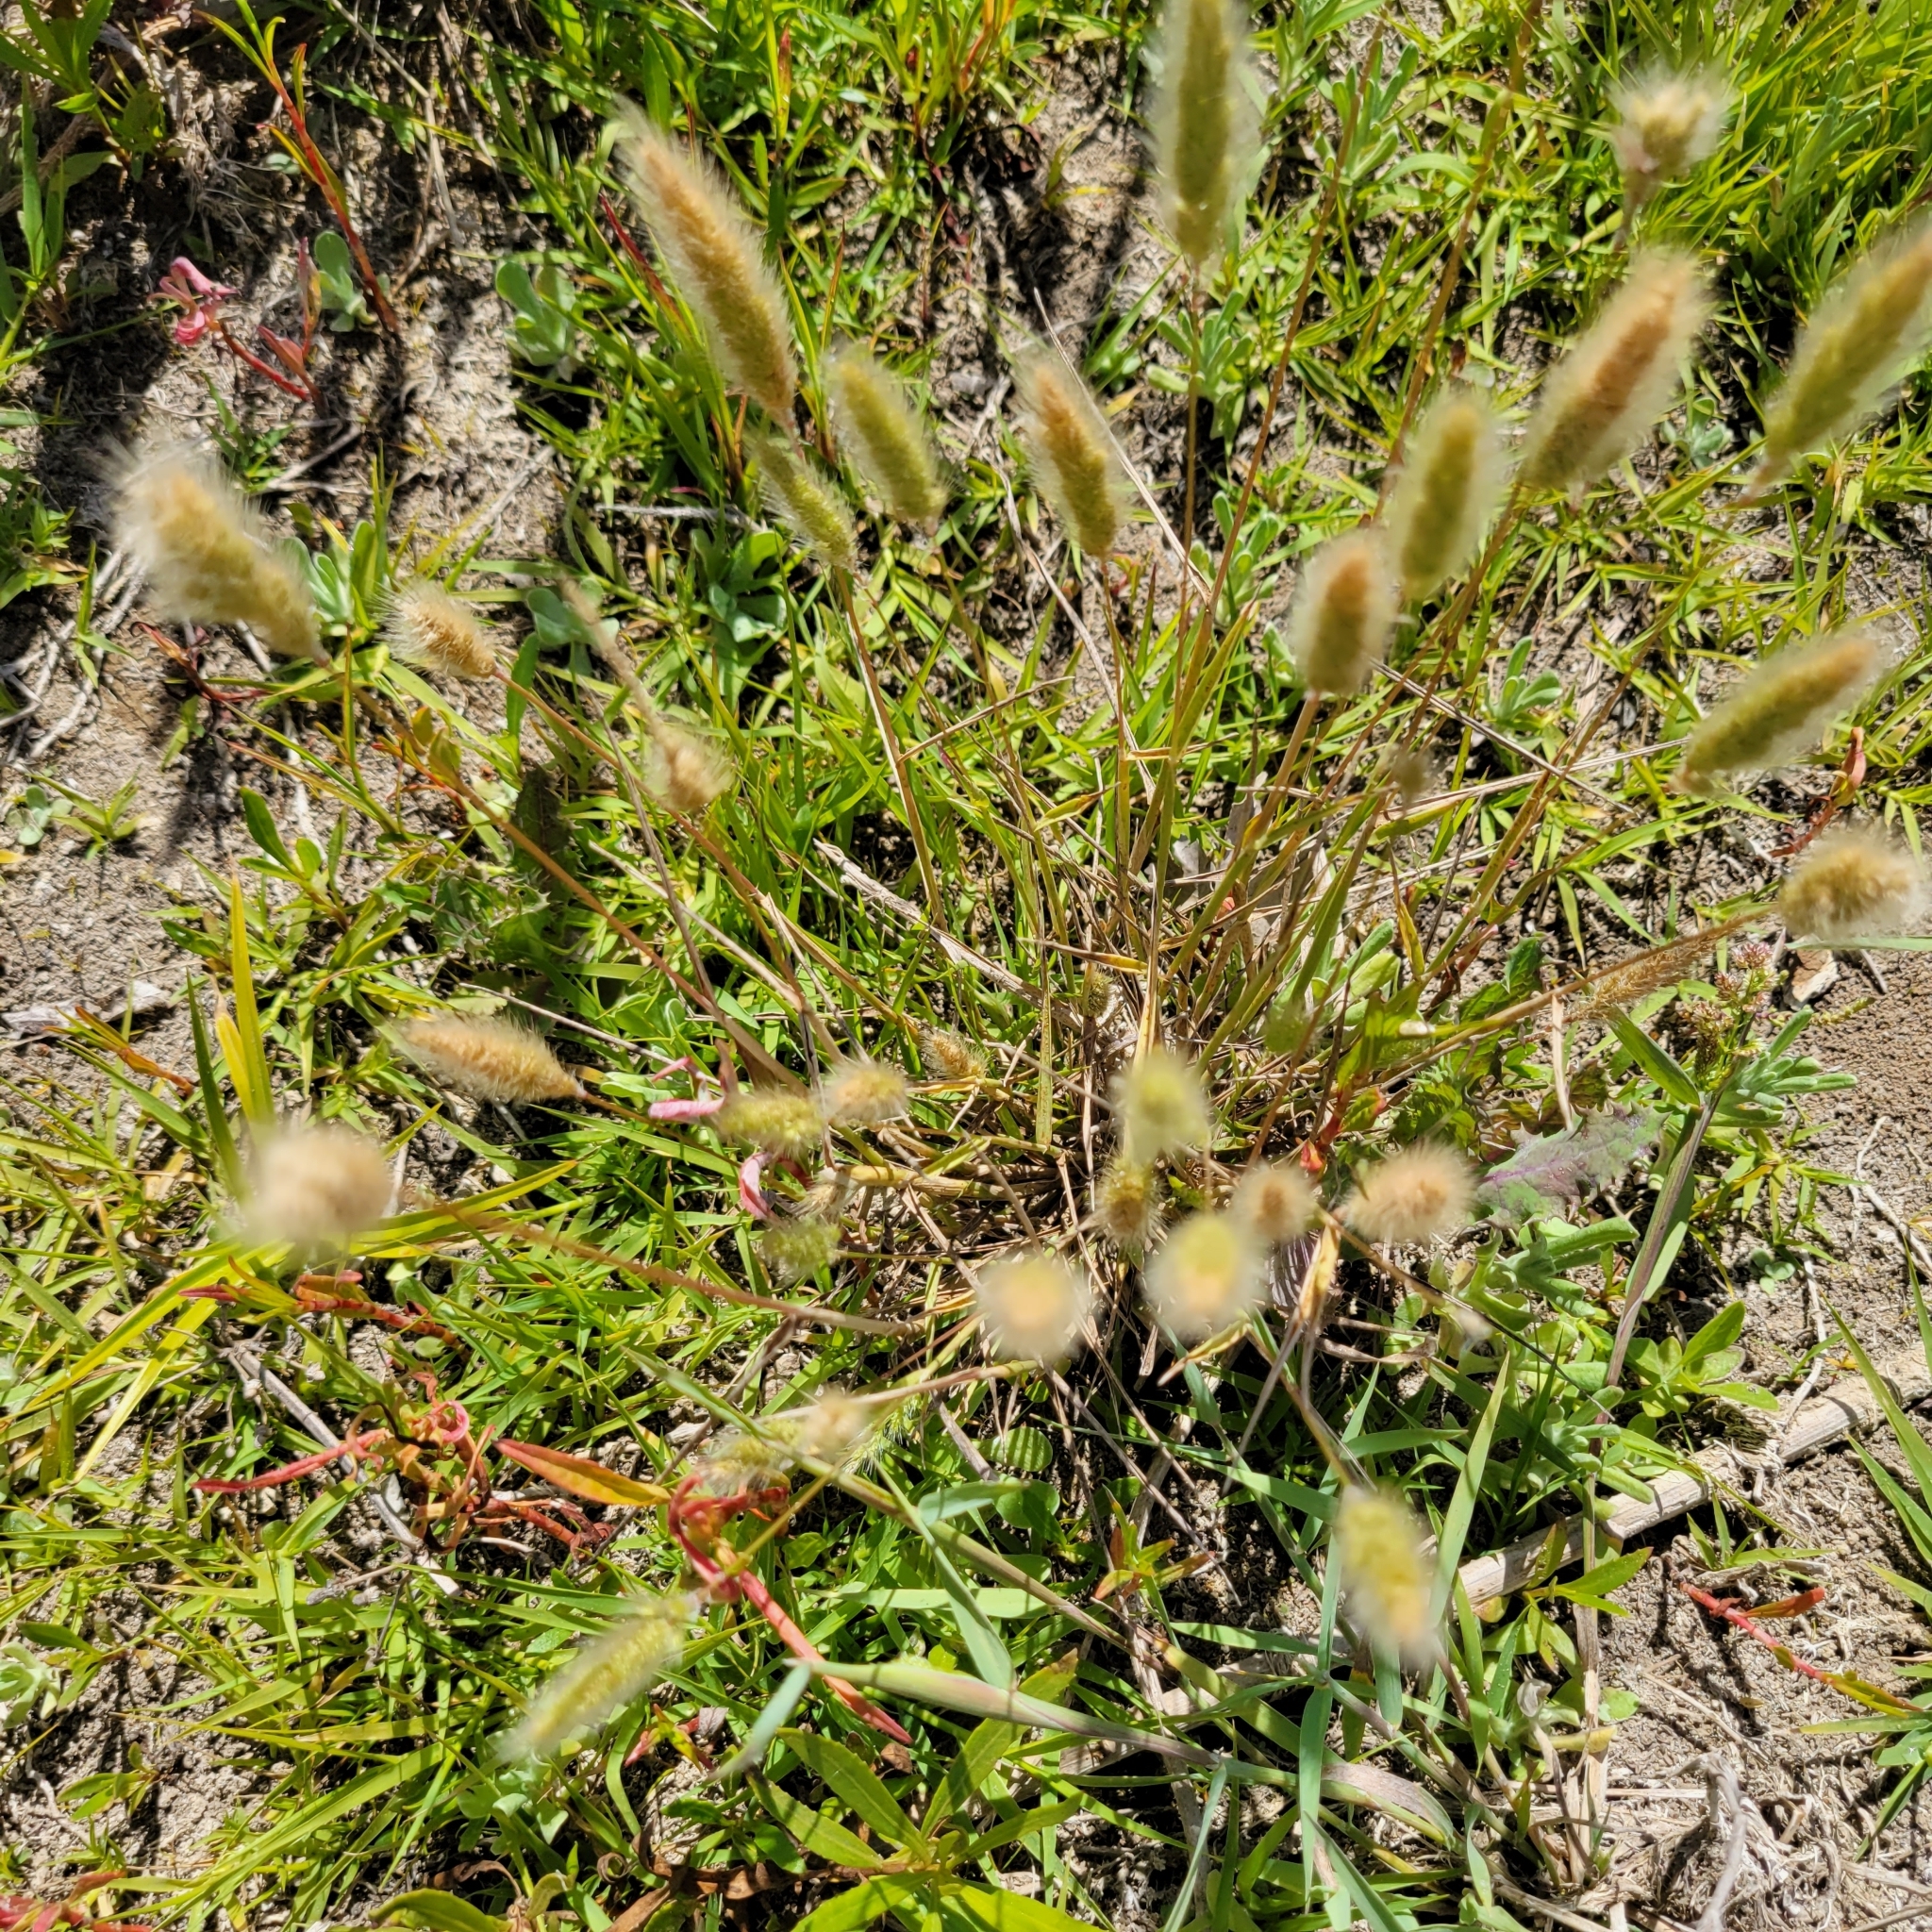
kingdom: Plantae
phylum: Tracheophyta
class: Liliopsida
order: Poales
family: Poaceae
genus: Polypogon
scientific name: Polypogon monspeliensis
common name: Annual rabbitsfoot grass
